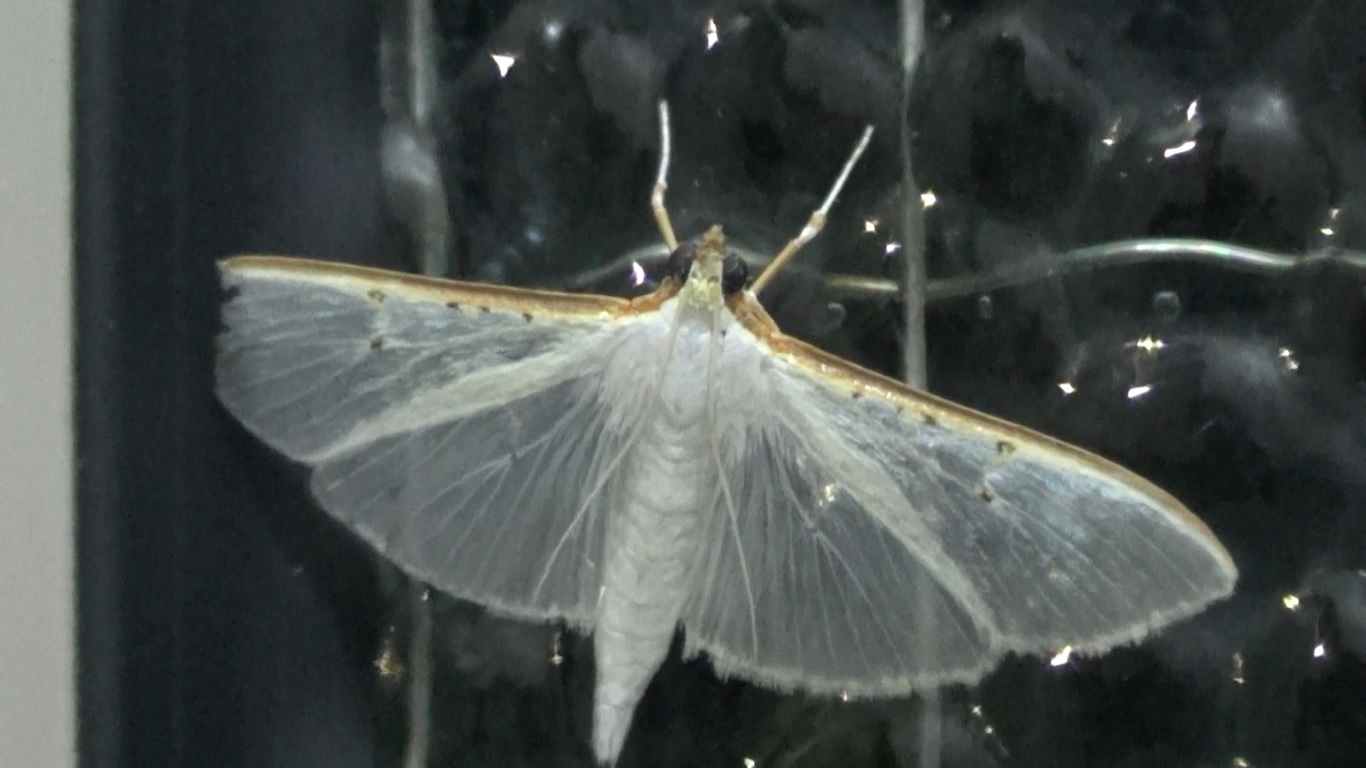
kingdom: Animalia
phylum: Arthropoda
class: Insecta
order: Lepidoptera
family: Crambidae
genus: Palpita
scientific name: Palpita vitrealis
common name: Olive-tree pearl
